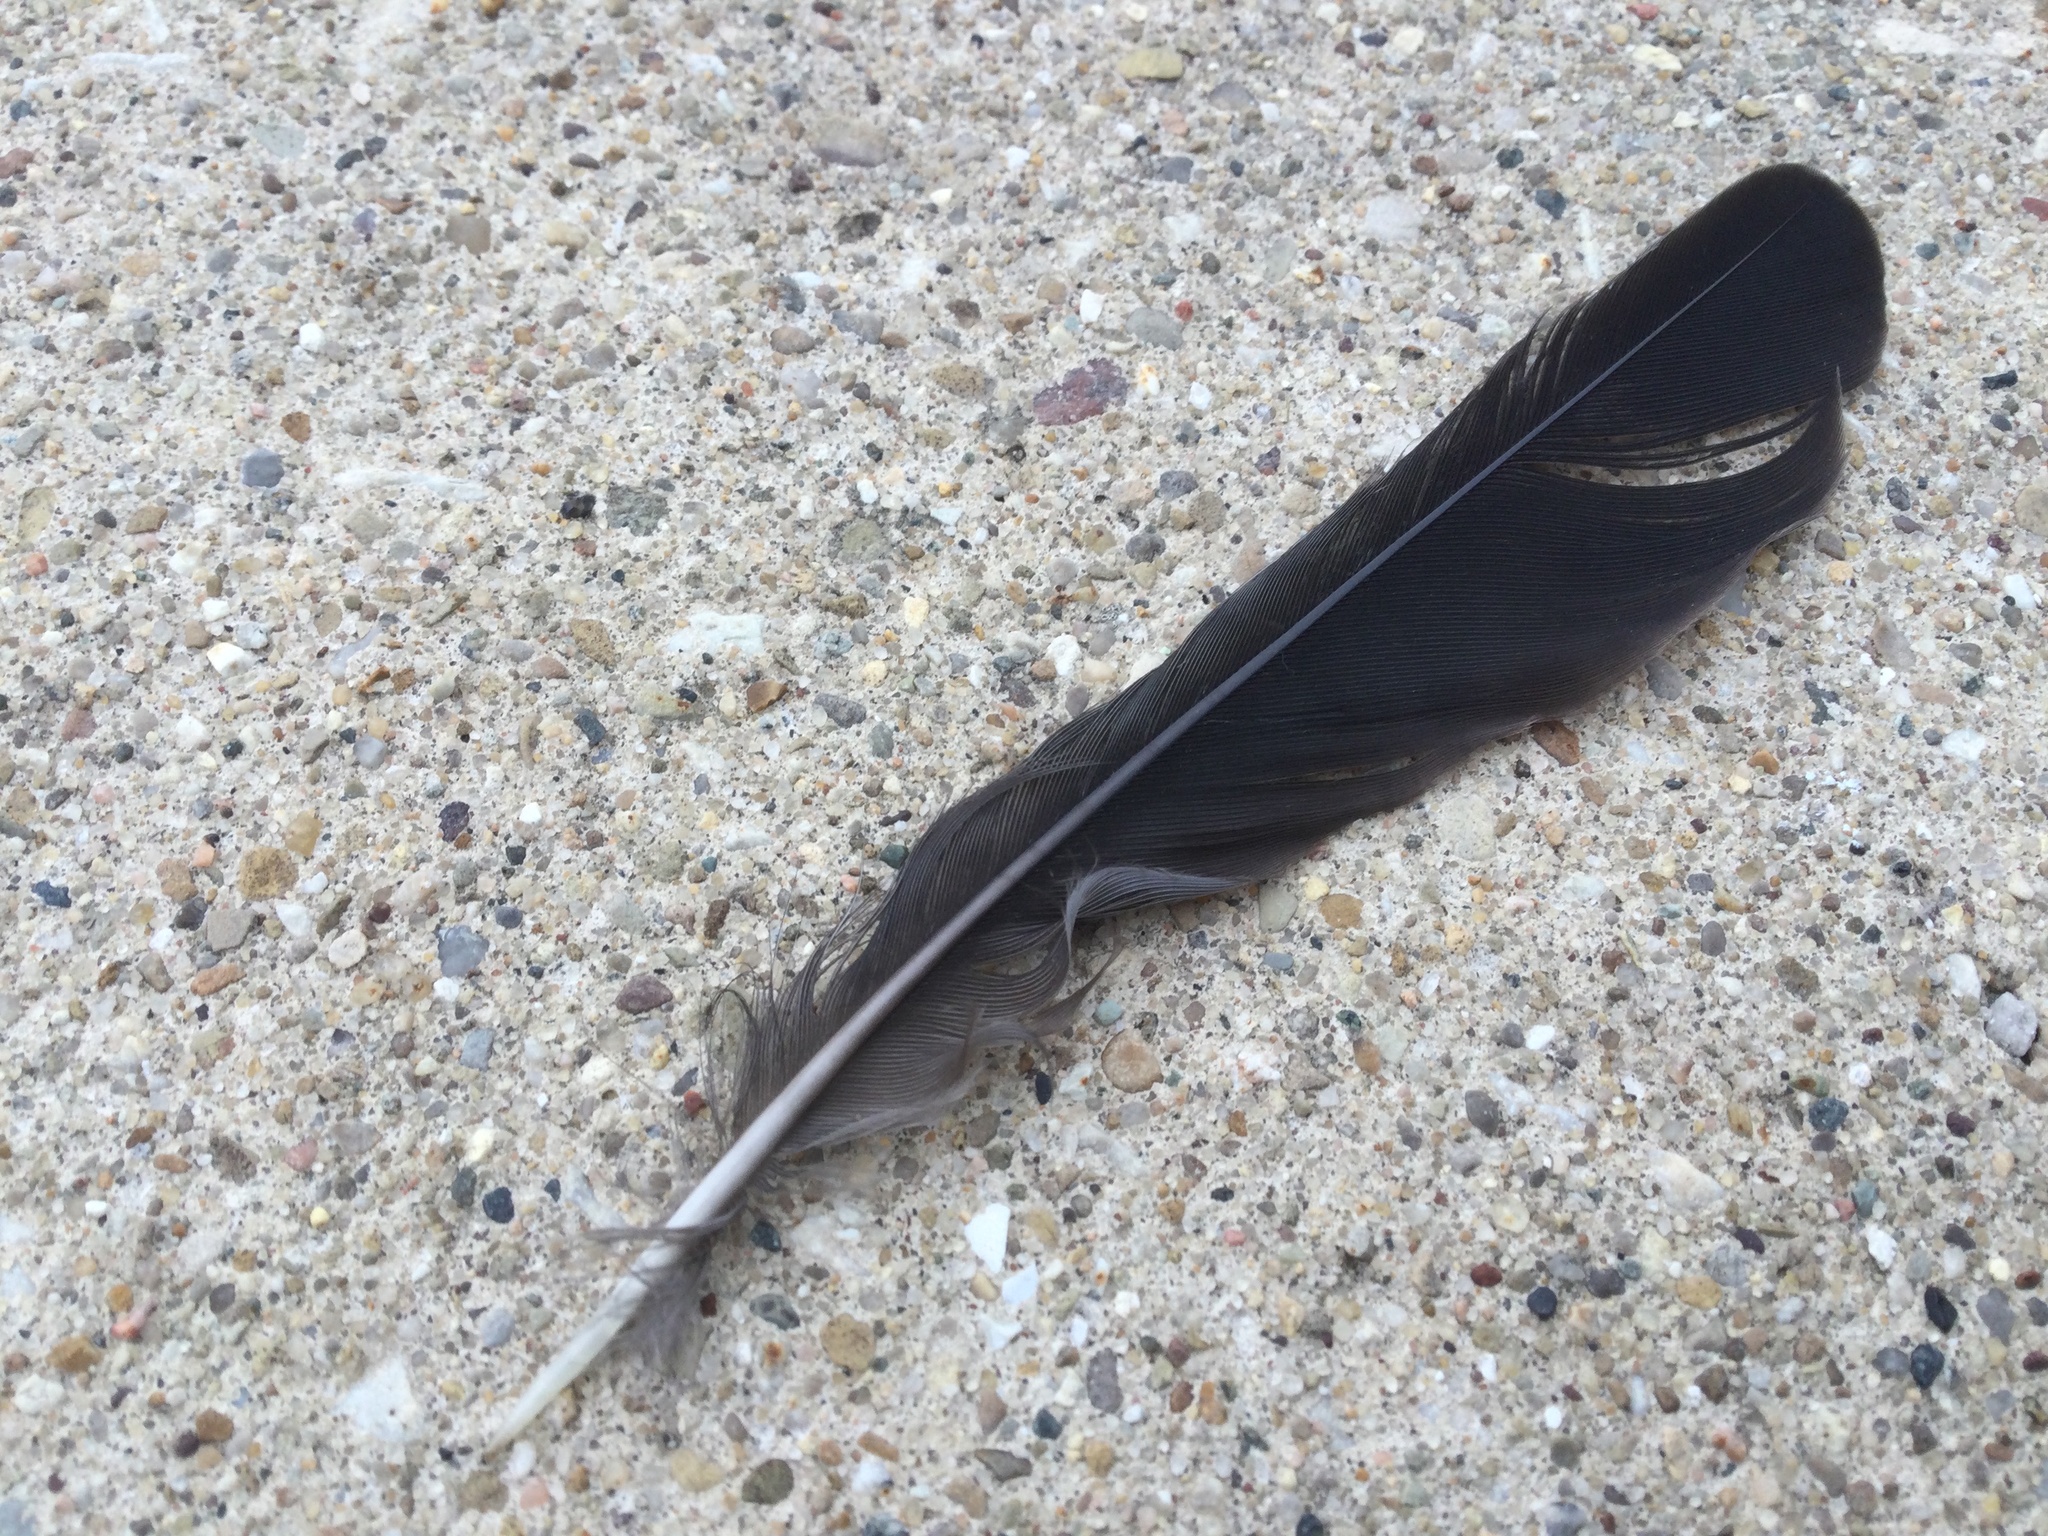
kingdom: Animalia
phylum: Chordata
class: Aves
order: Passeriformes
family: Corvidae
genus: Corvus
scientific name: Corvus brachyrhynchos
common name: American crow
